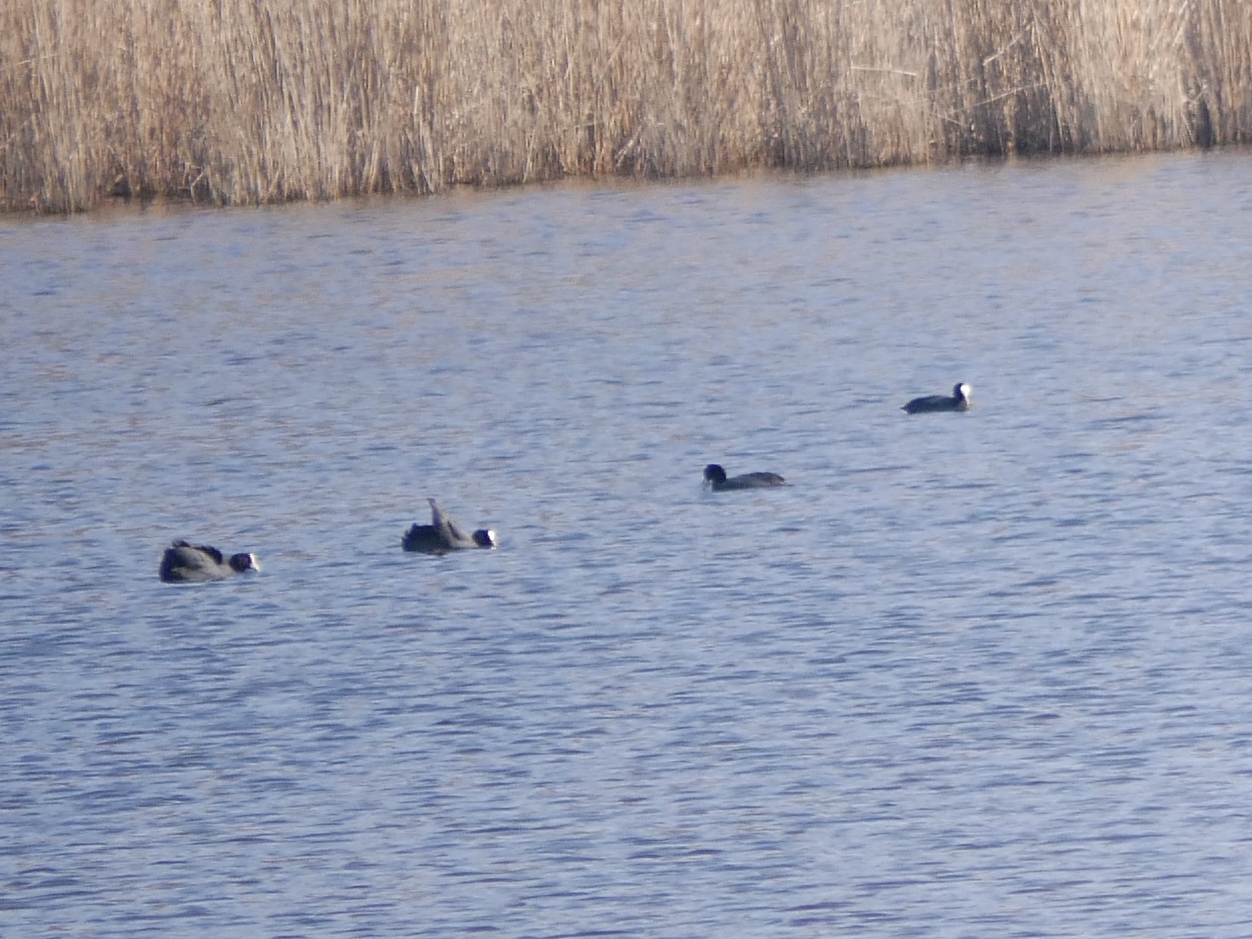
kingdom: Animalia
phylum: Chordata
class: Aves
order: Gruiformes
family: Rallidae
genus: Fulica
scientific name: Fulica atra
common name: Eurasian coot
